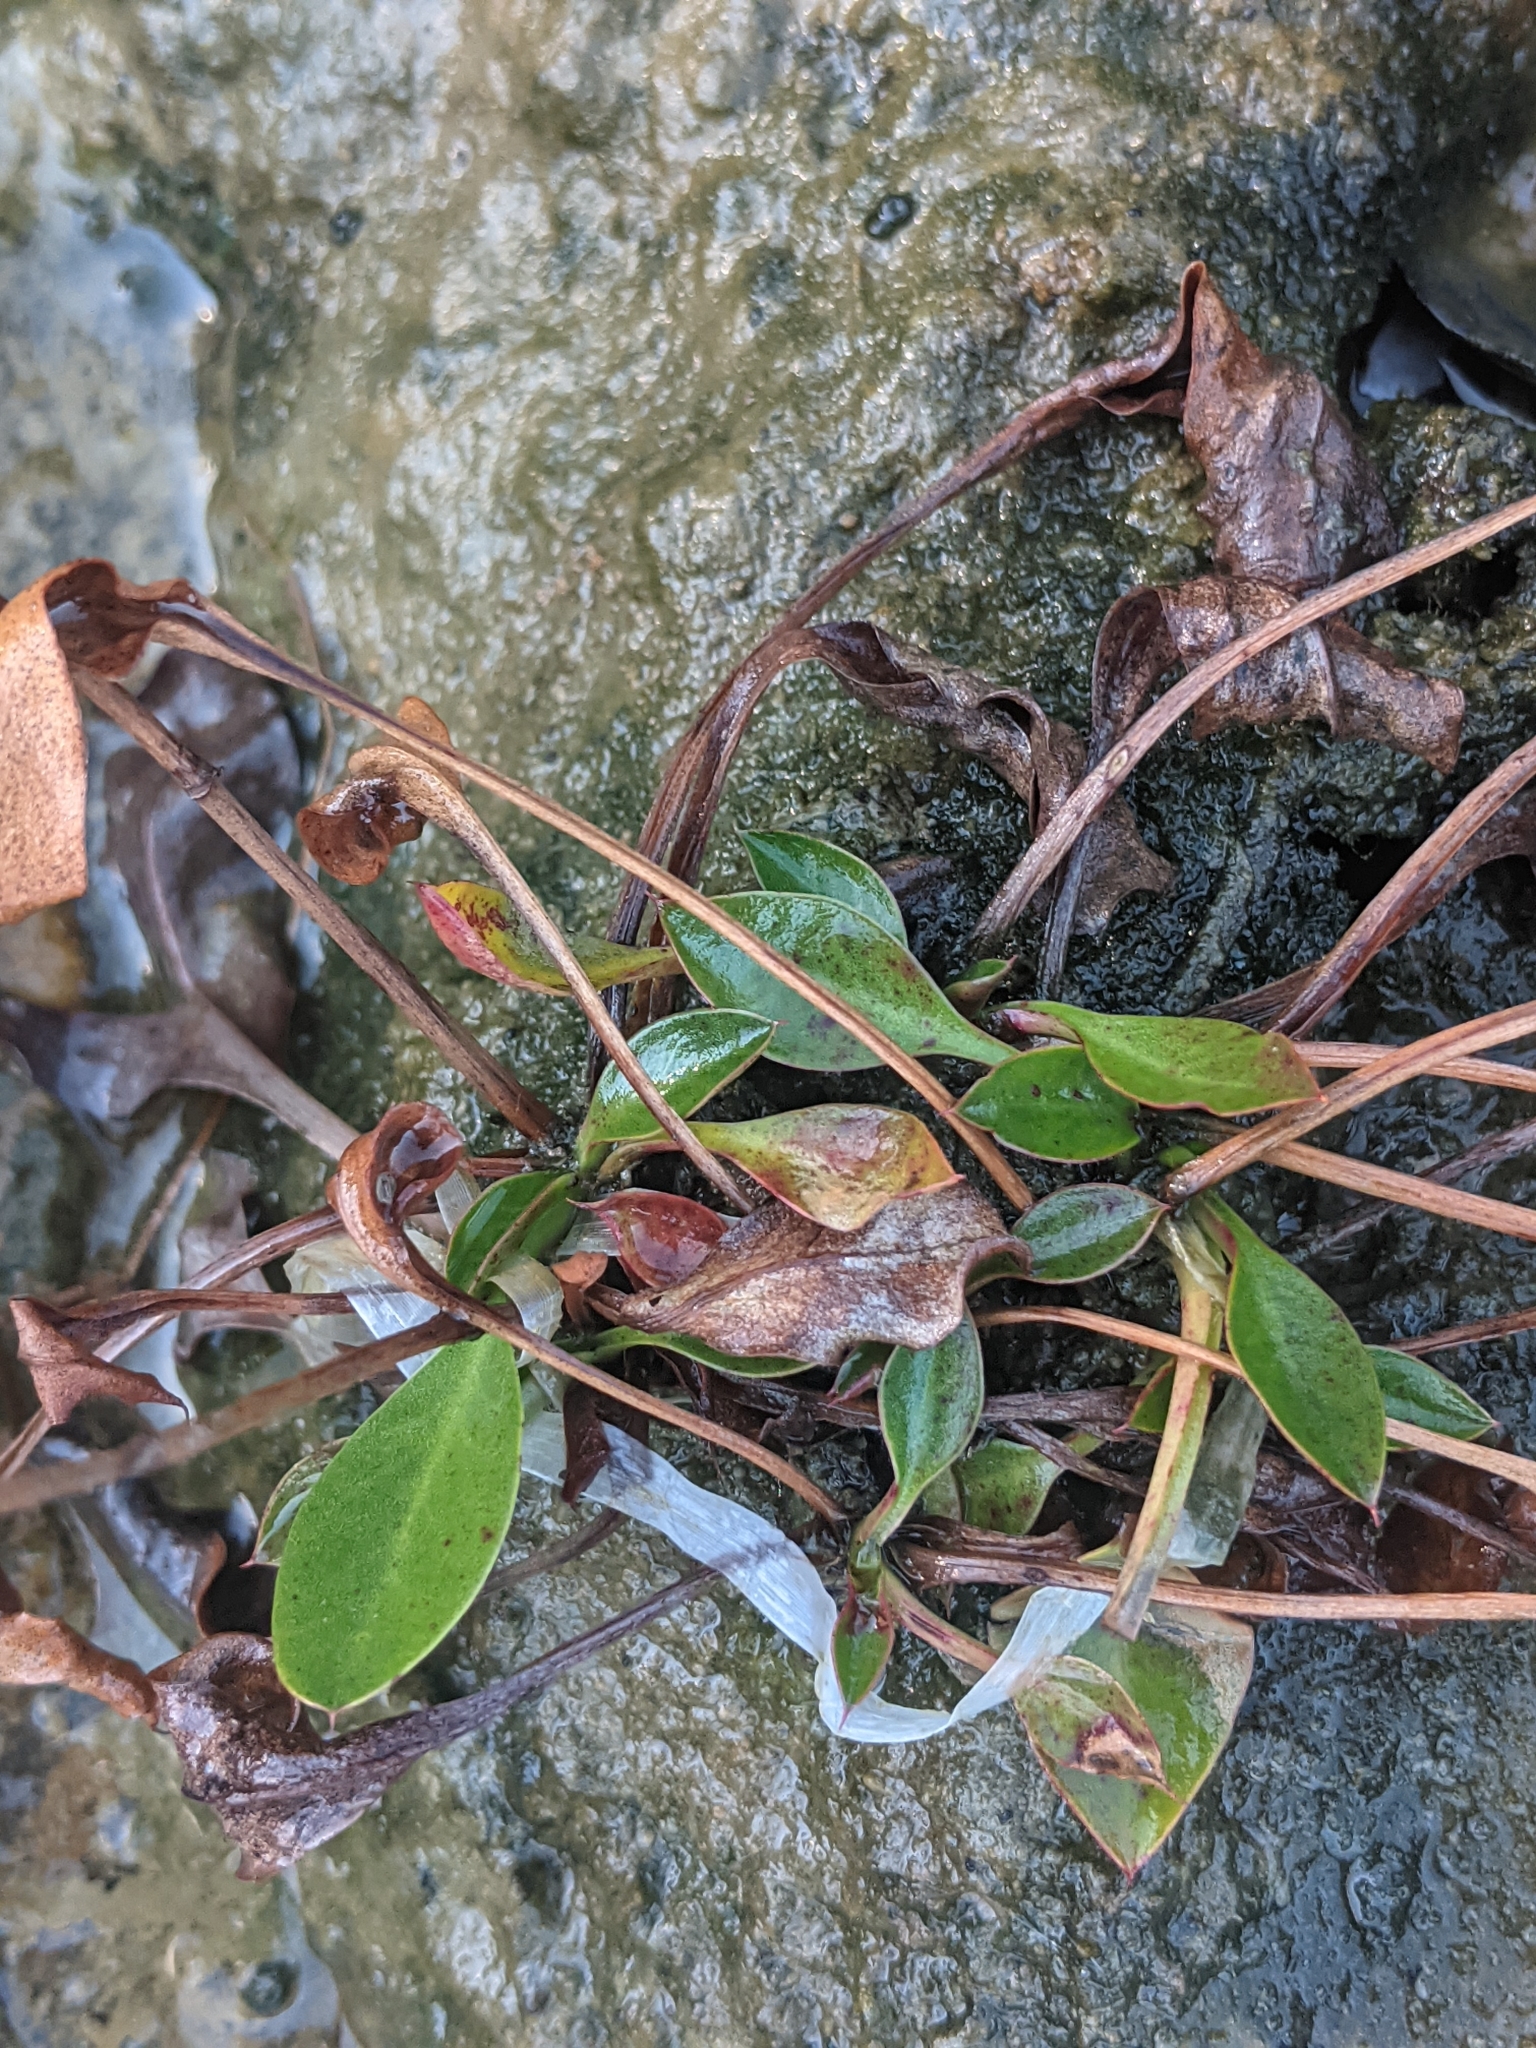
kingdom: Plantae
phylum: Tracheophyta
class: Magnoliopsida
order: Caryophyllales
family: Plumbaginaceae
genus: Limonium
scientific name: Limonium carolinianum
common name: Carolina sea lavender
